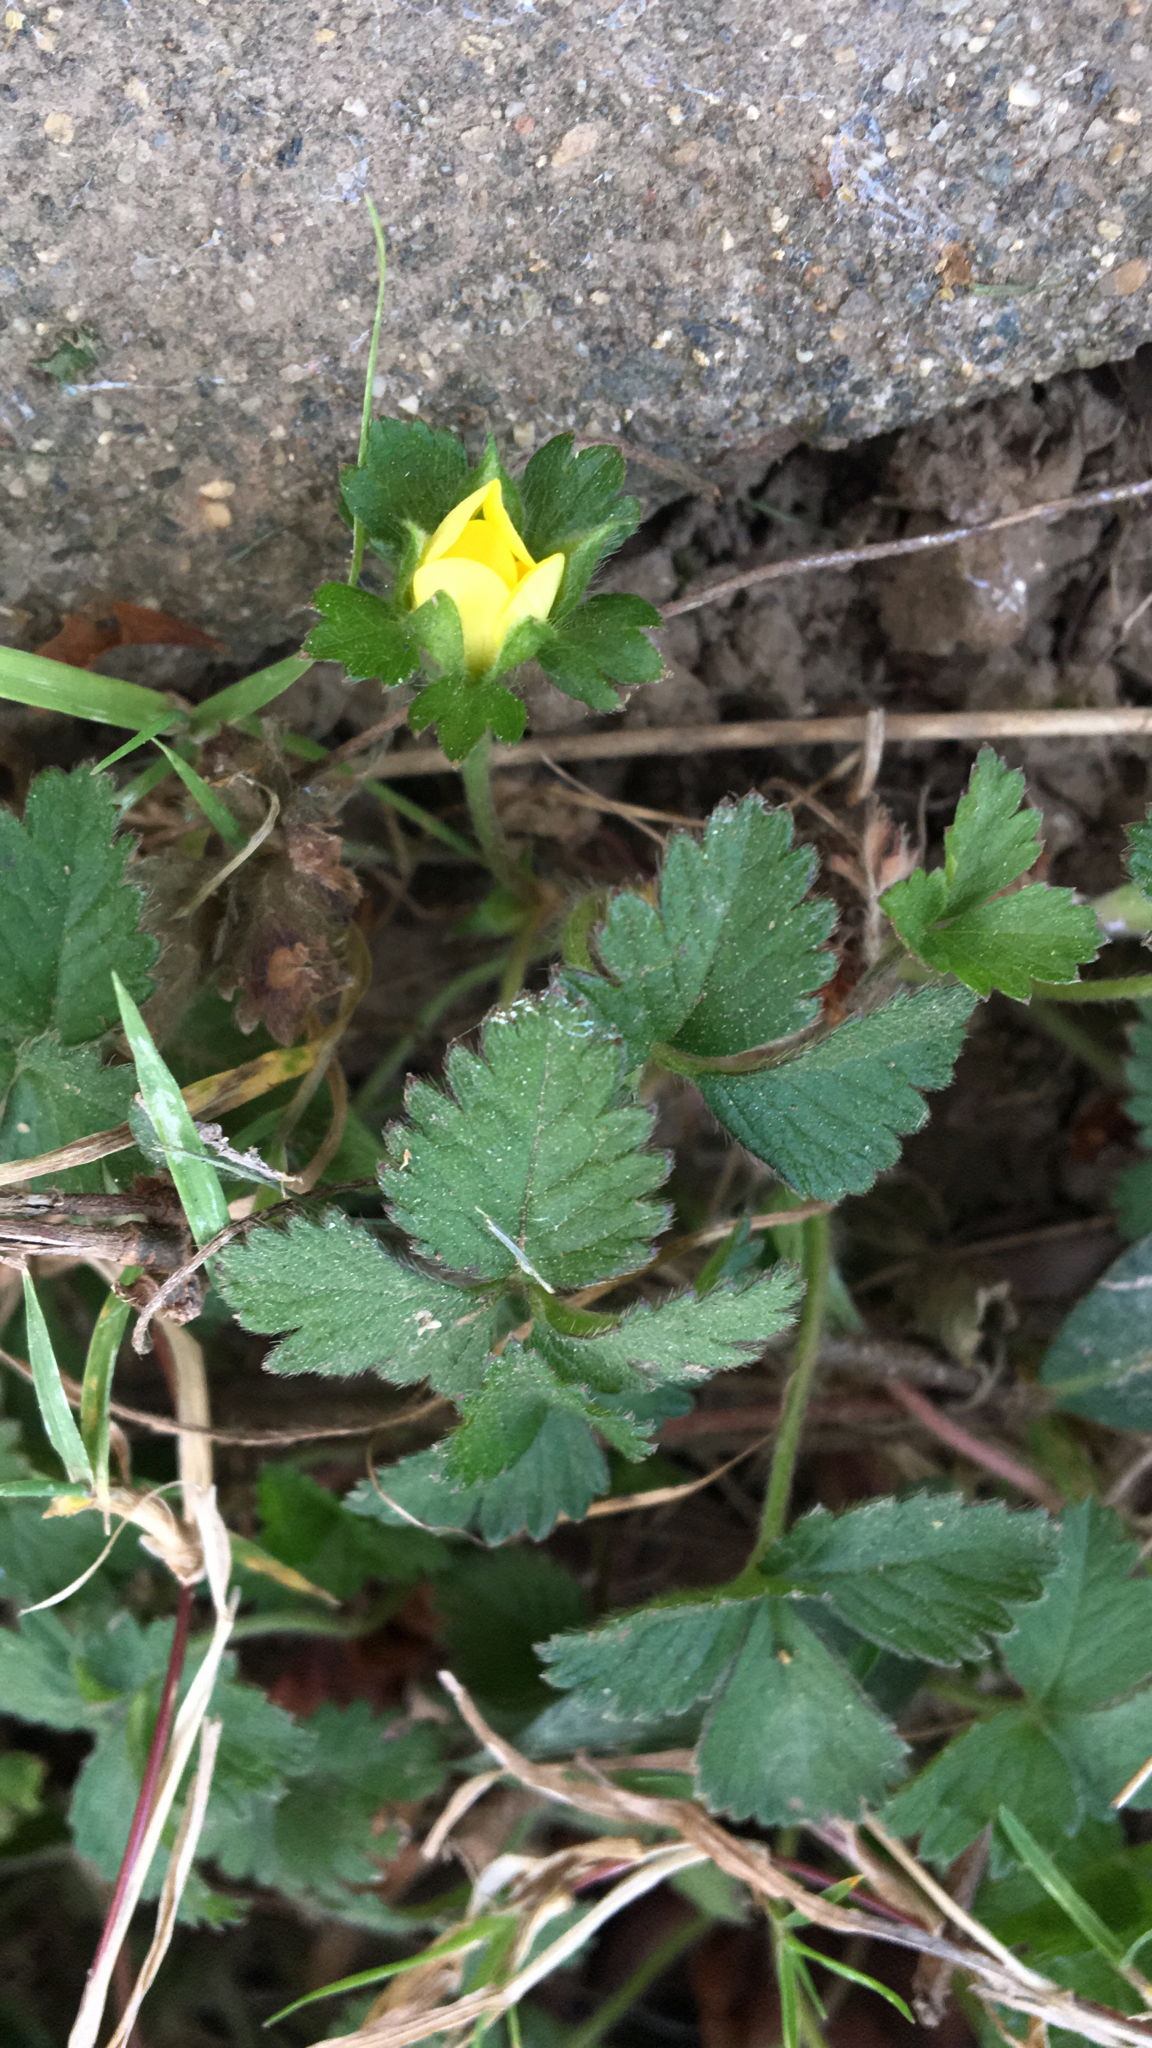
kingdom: Plantae
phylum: Tracheophyta
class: Magnoliopsida
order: Rosales
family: Rosaceae
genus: Potentilla
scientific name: Potentilla indica
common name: Yellow-flowered strawberry
